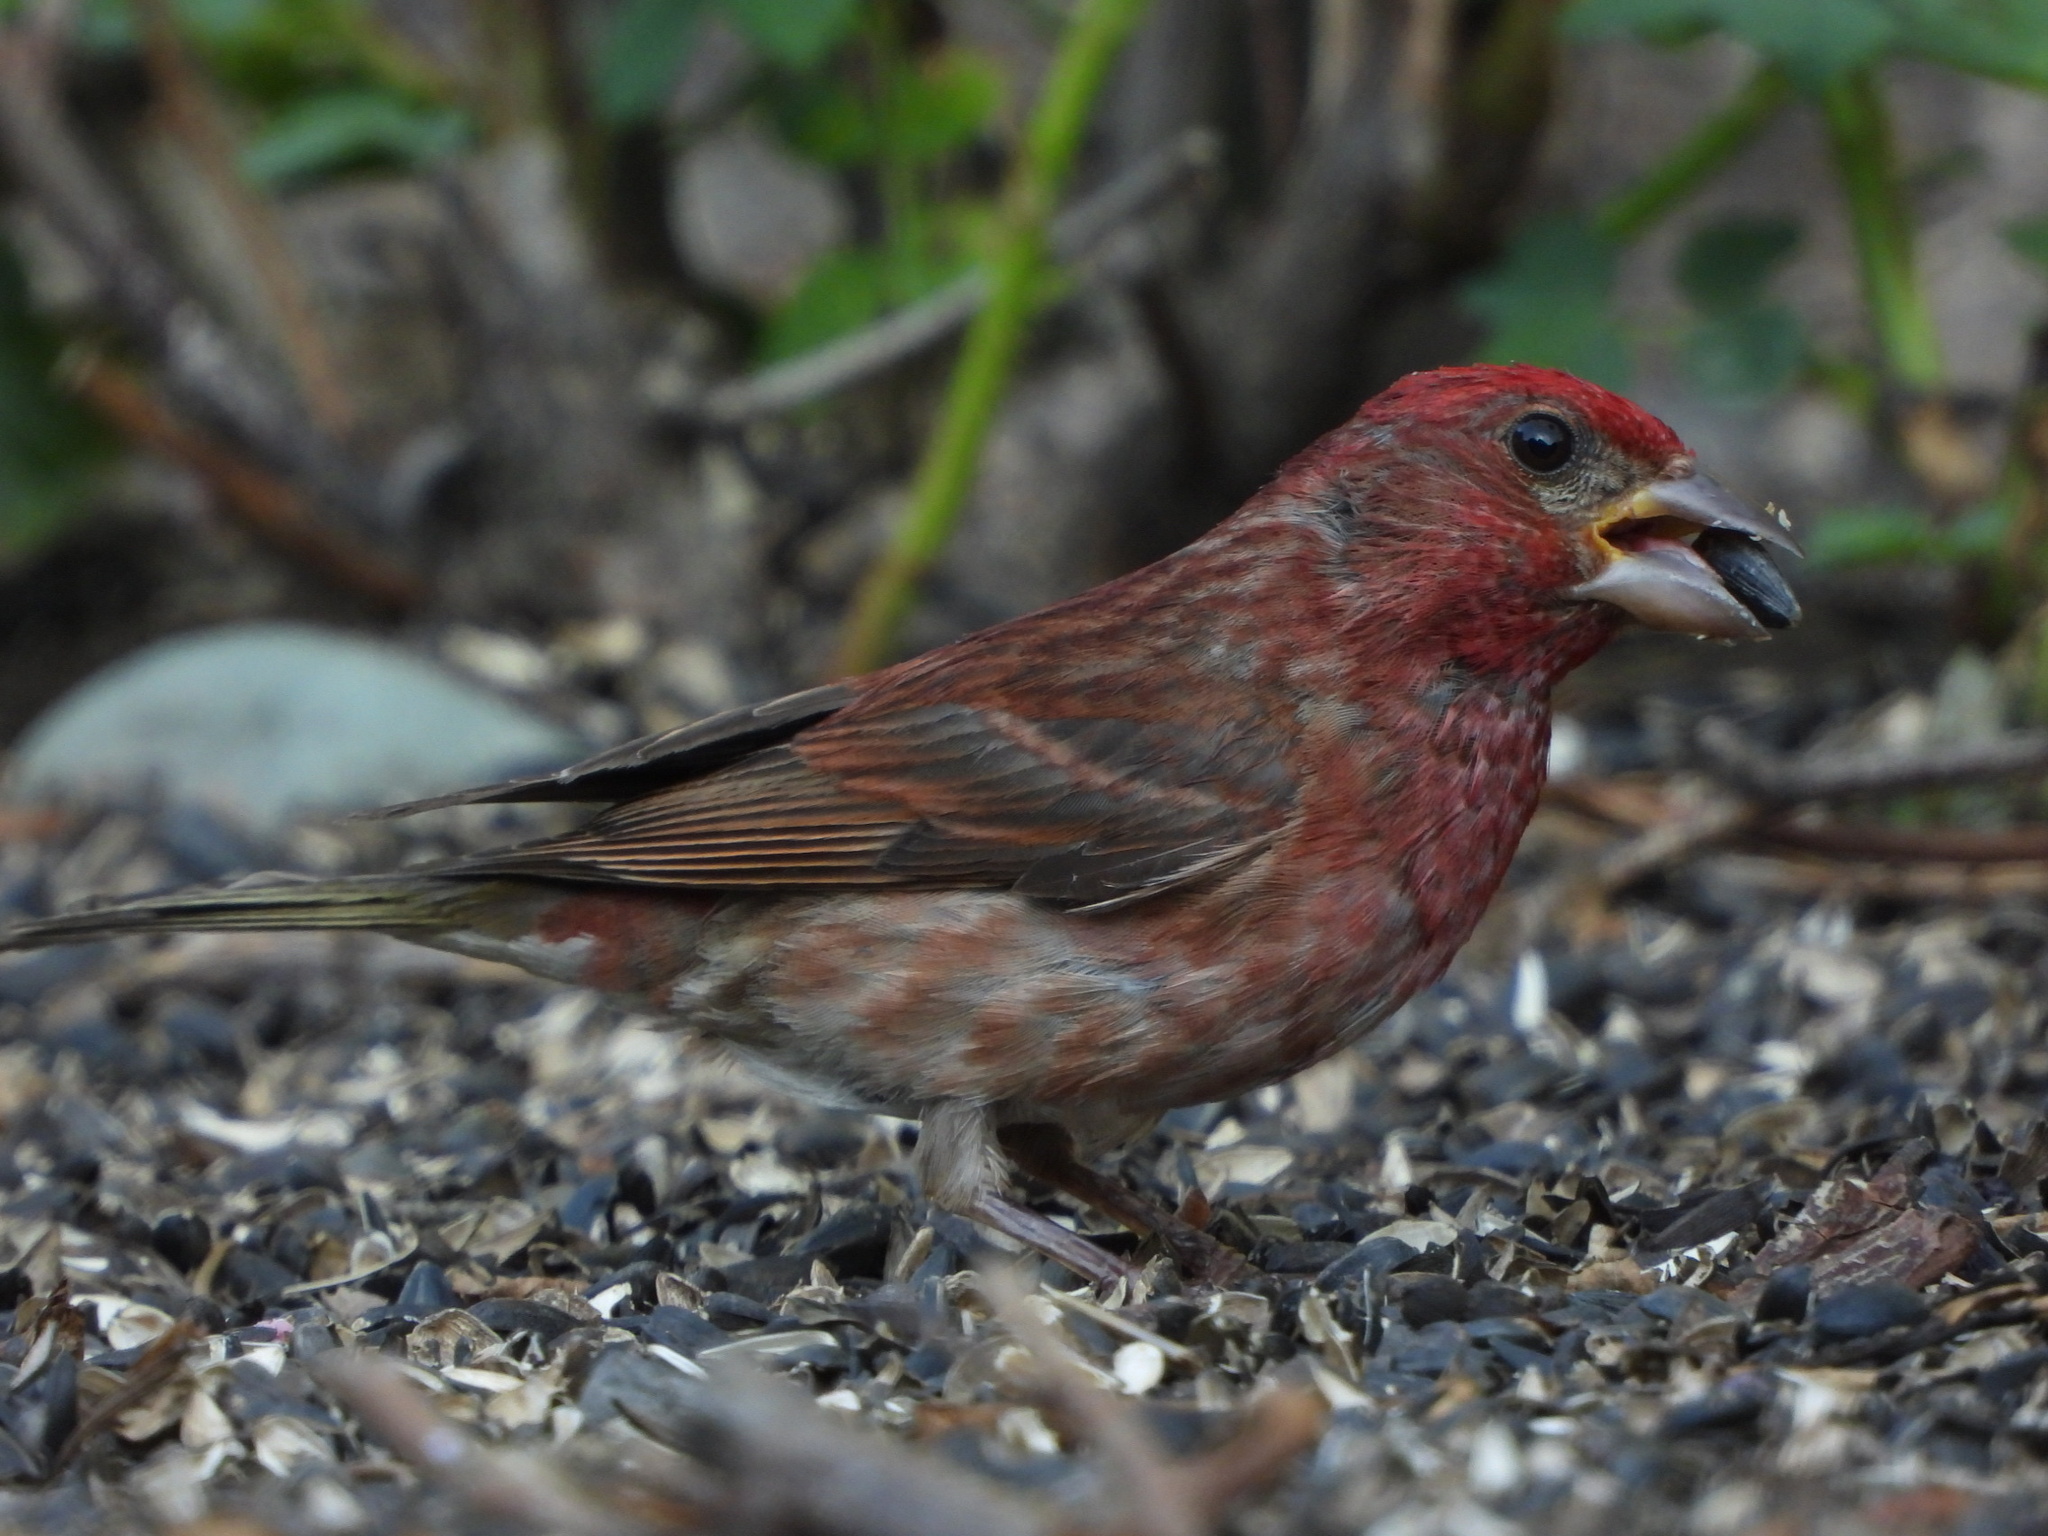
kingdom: Animalia
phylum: Chordata
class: Aves
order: Passeriformes
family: Fringillidae
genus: Haemorhous
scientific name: Haemorhous purpureus
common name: Purple finch
